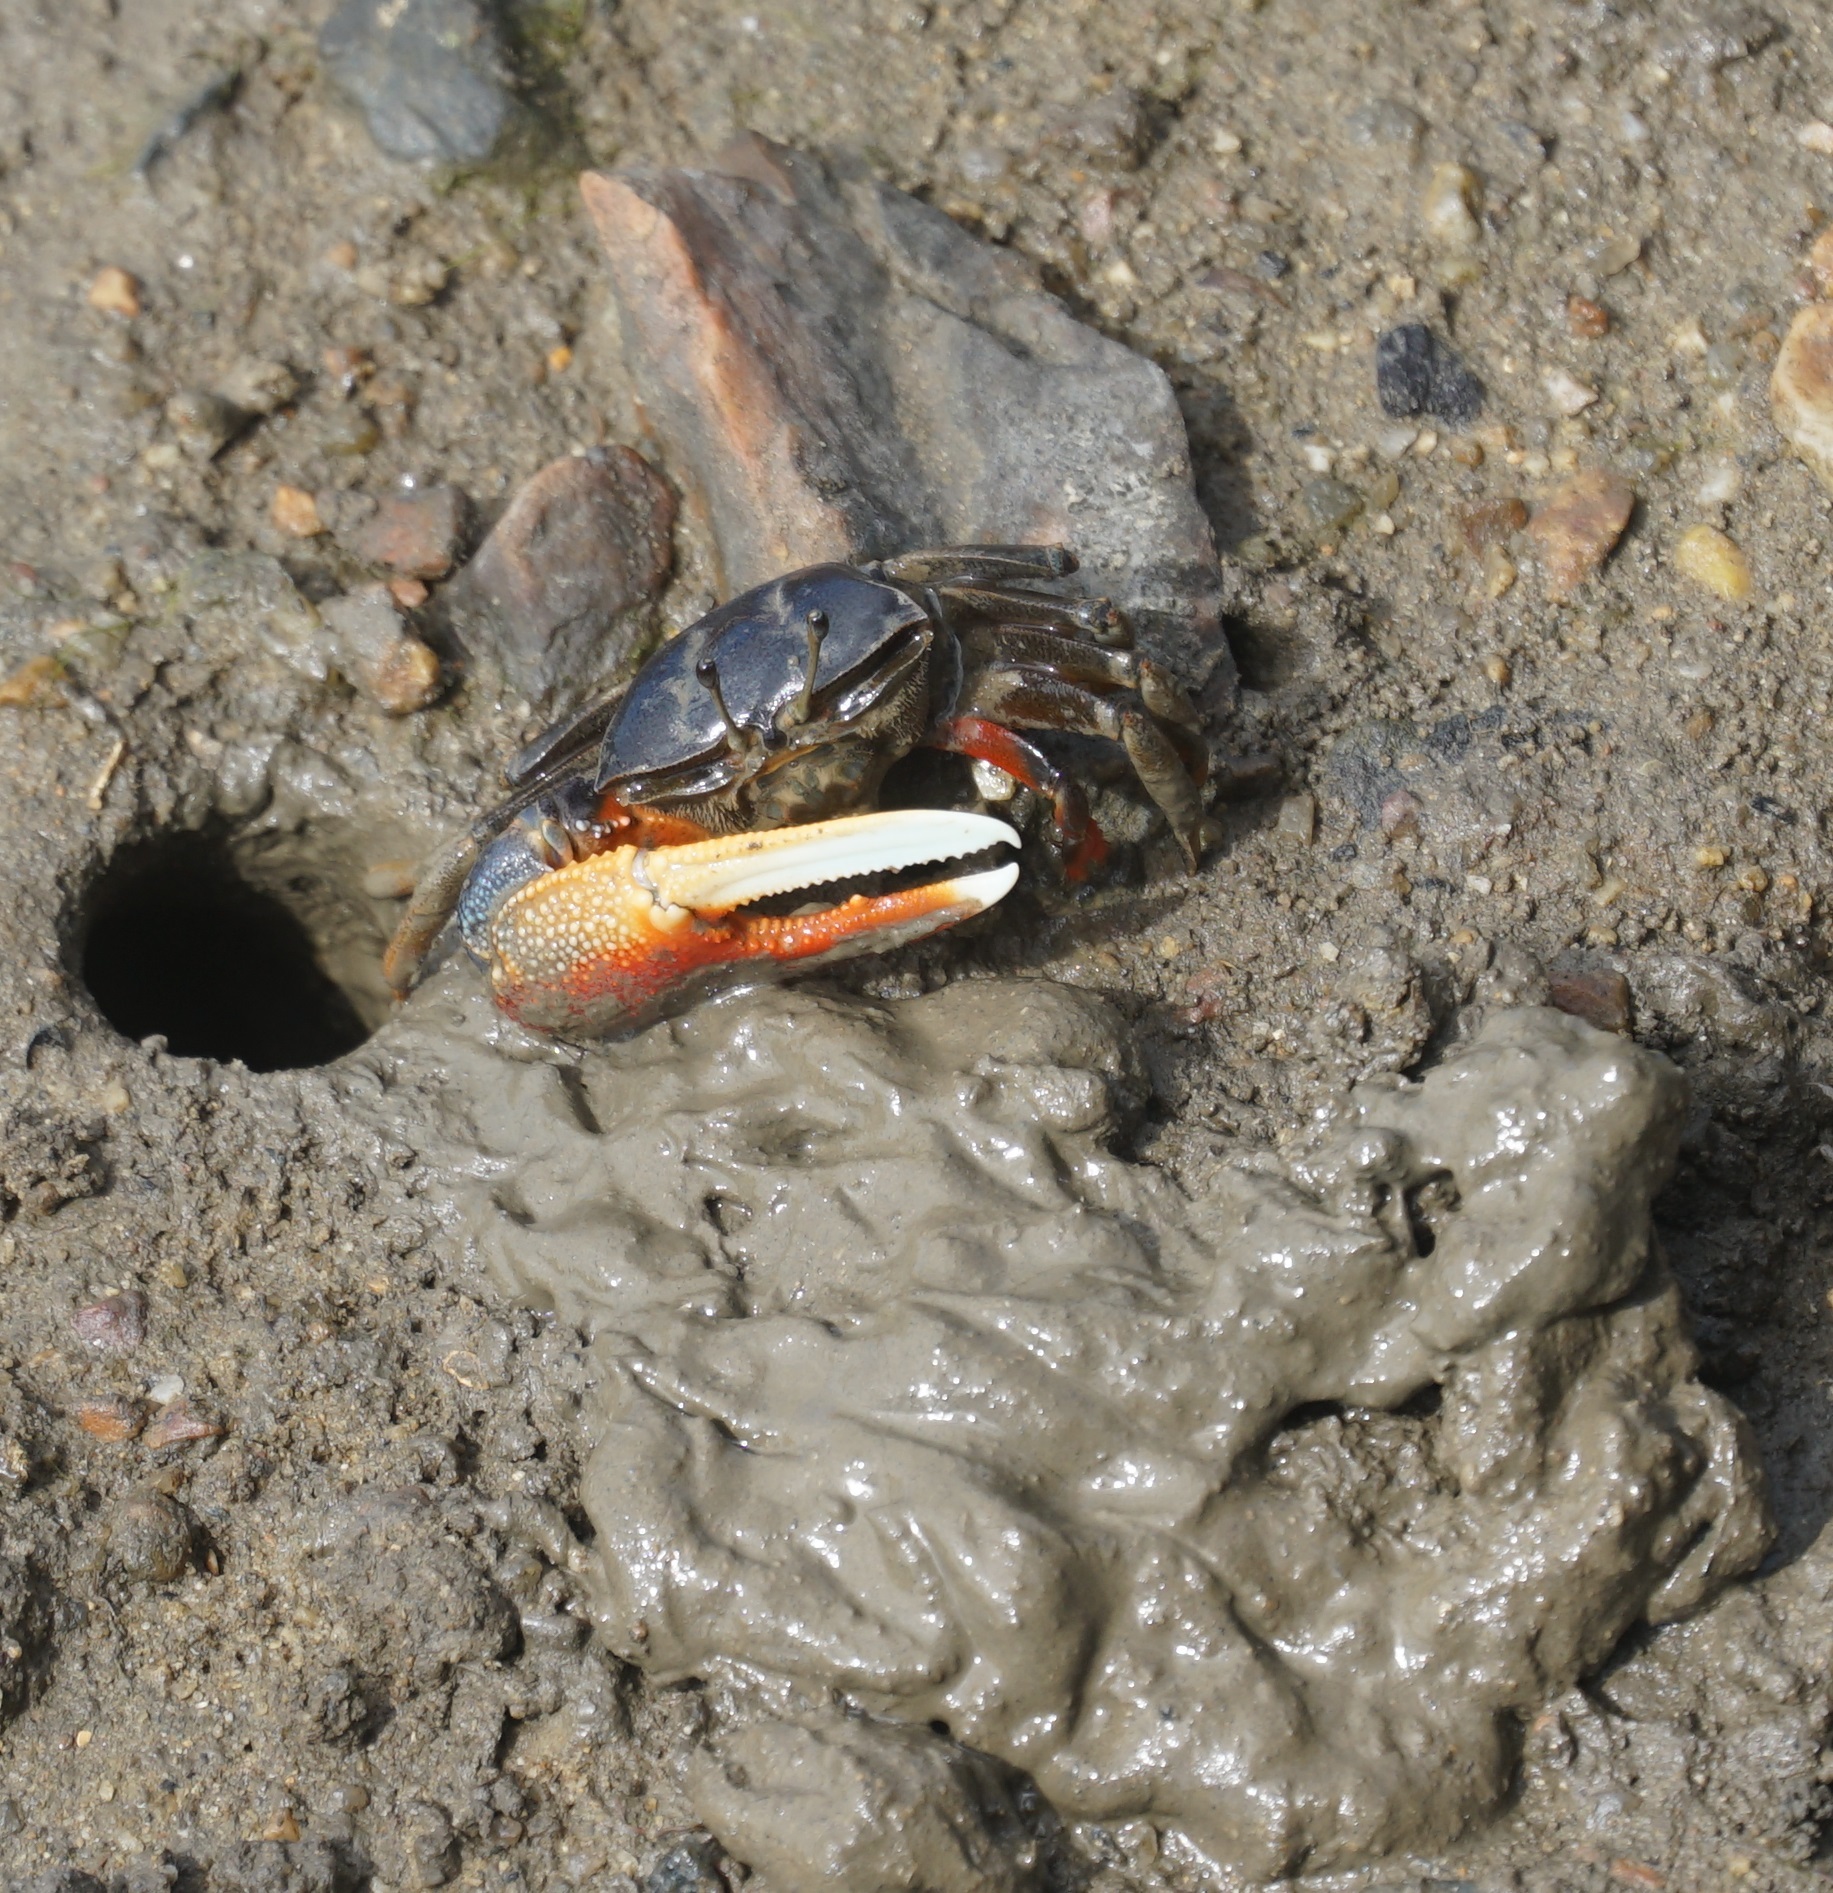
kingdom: Animalia
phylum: Arthropoda
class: Malacostraca
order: Decapoda
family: Ocypodidae
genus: Tubuca
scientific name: Tubuca dussumieri
